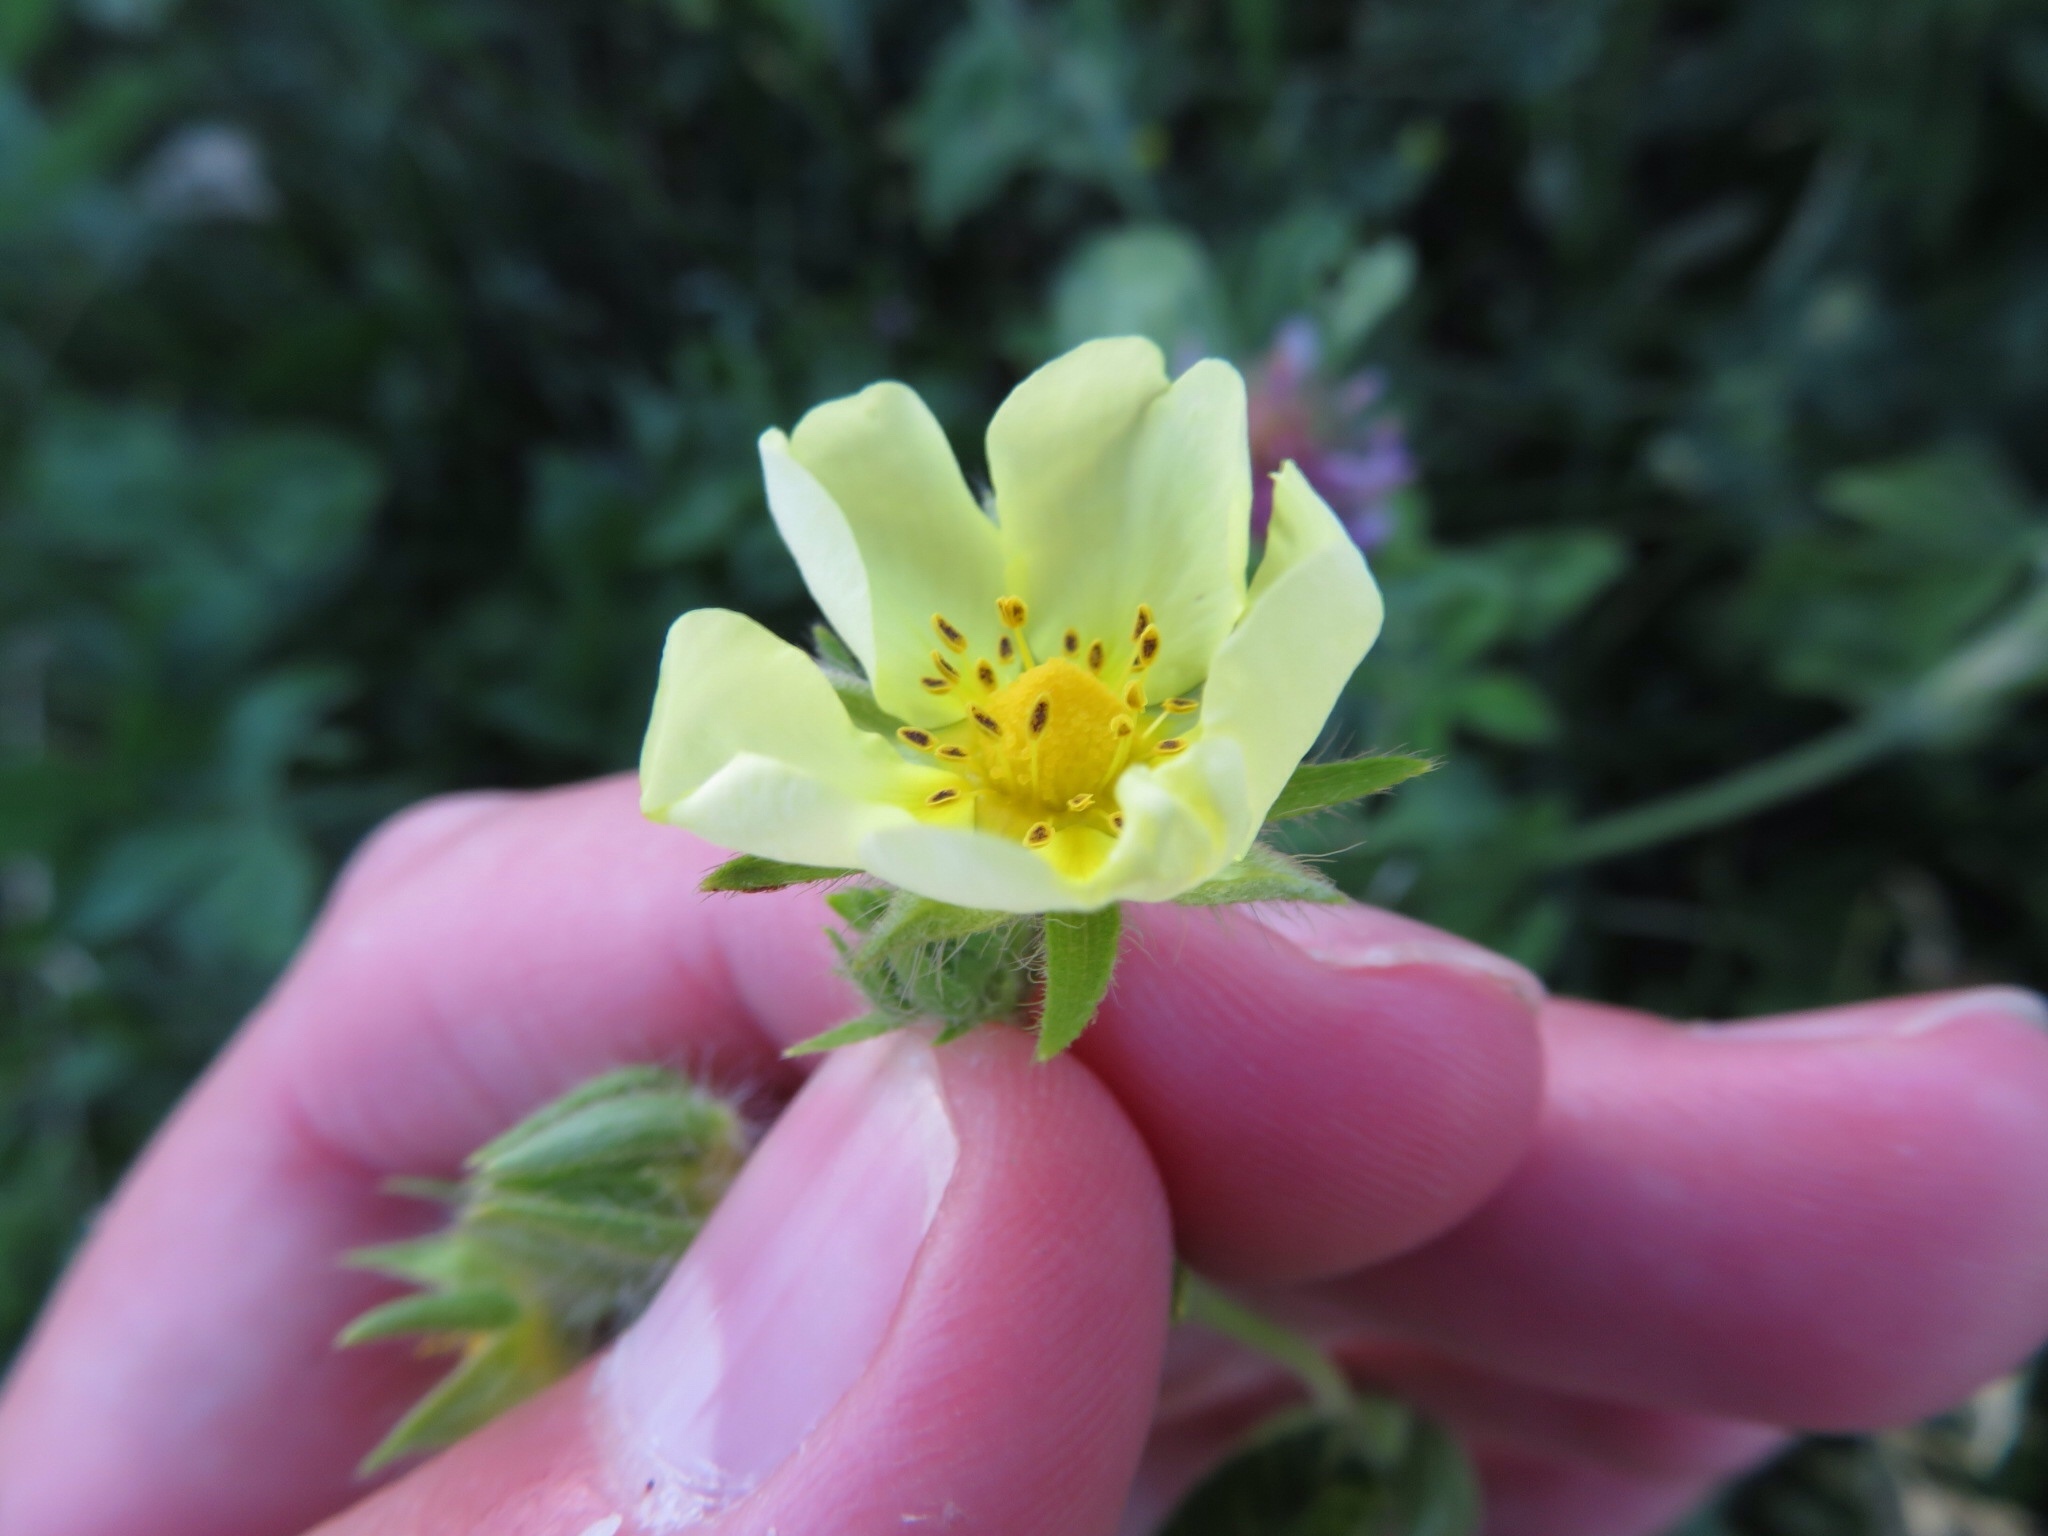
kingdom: Plantae
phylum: Tracheophyta
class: Magnoliopsida
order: Rosales
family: Rosaceae
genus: Potentilla
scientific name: Potentilla recta
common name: Sulphur cinquefoil
